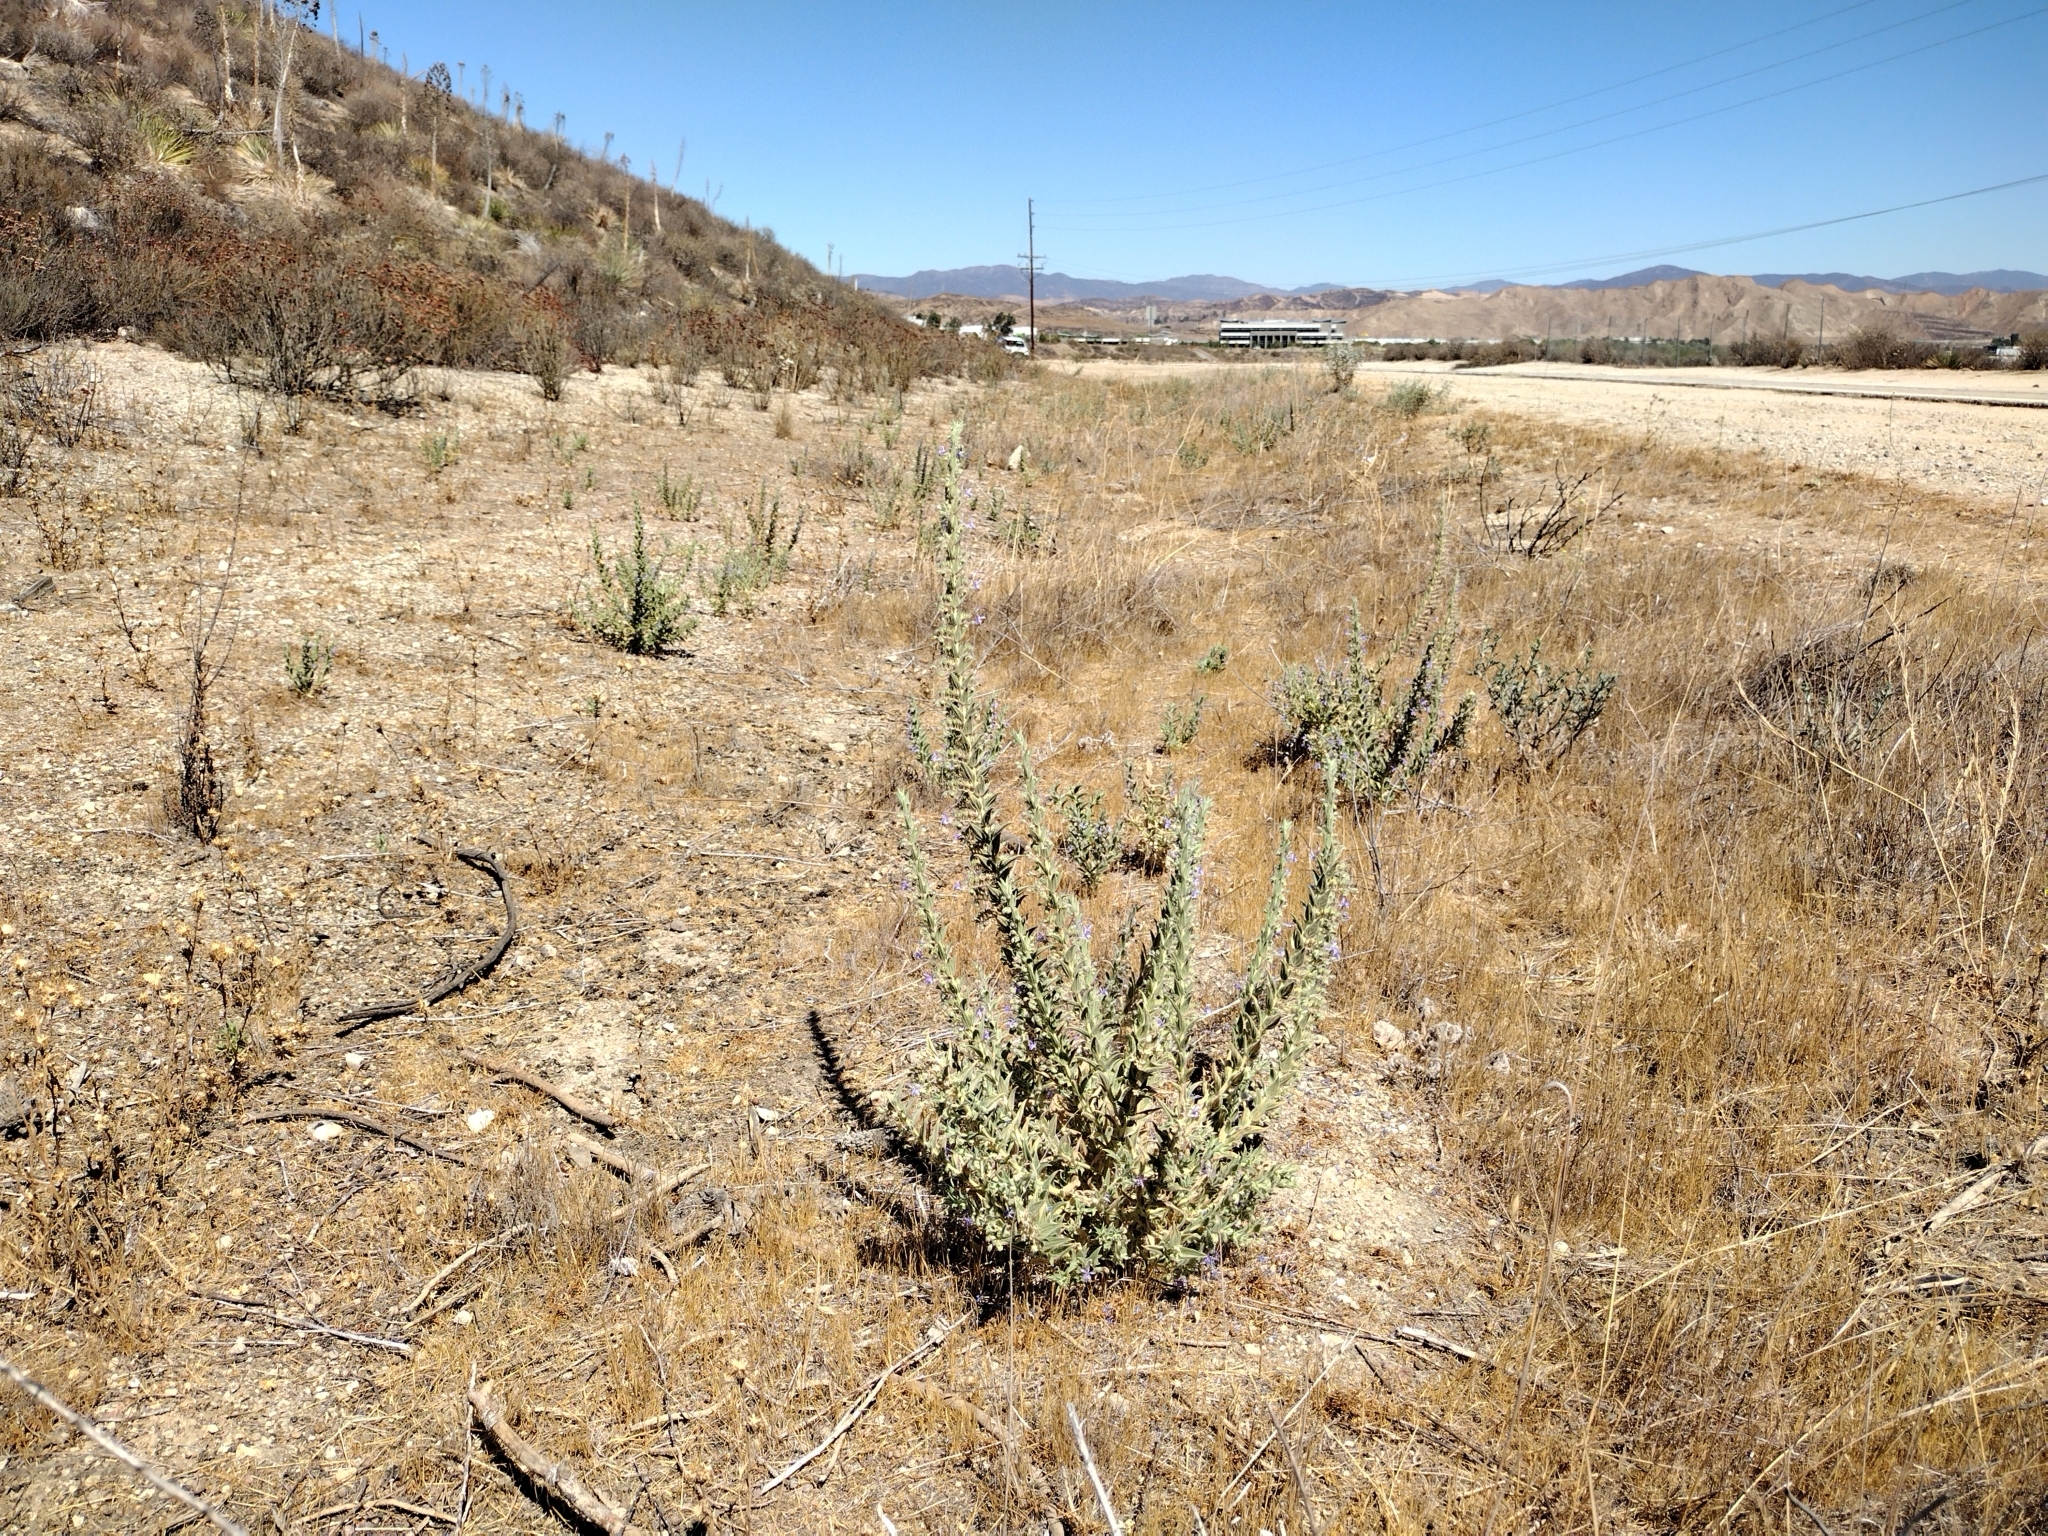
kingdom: Plantae
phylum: Tracheophyta
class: Magnoliopsida
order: Lamiales
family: Lamiaceae
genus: Trichostema
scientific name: Trichostema lanceolatum
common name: Vinegar-weed
